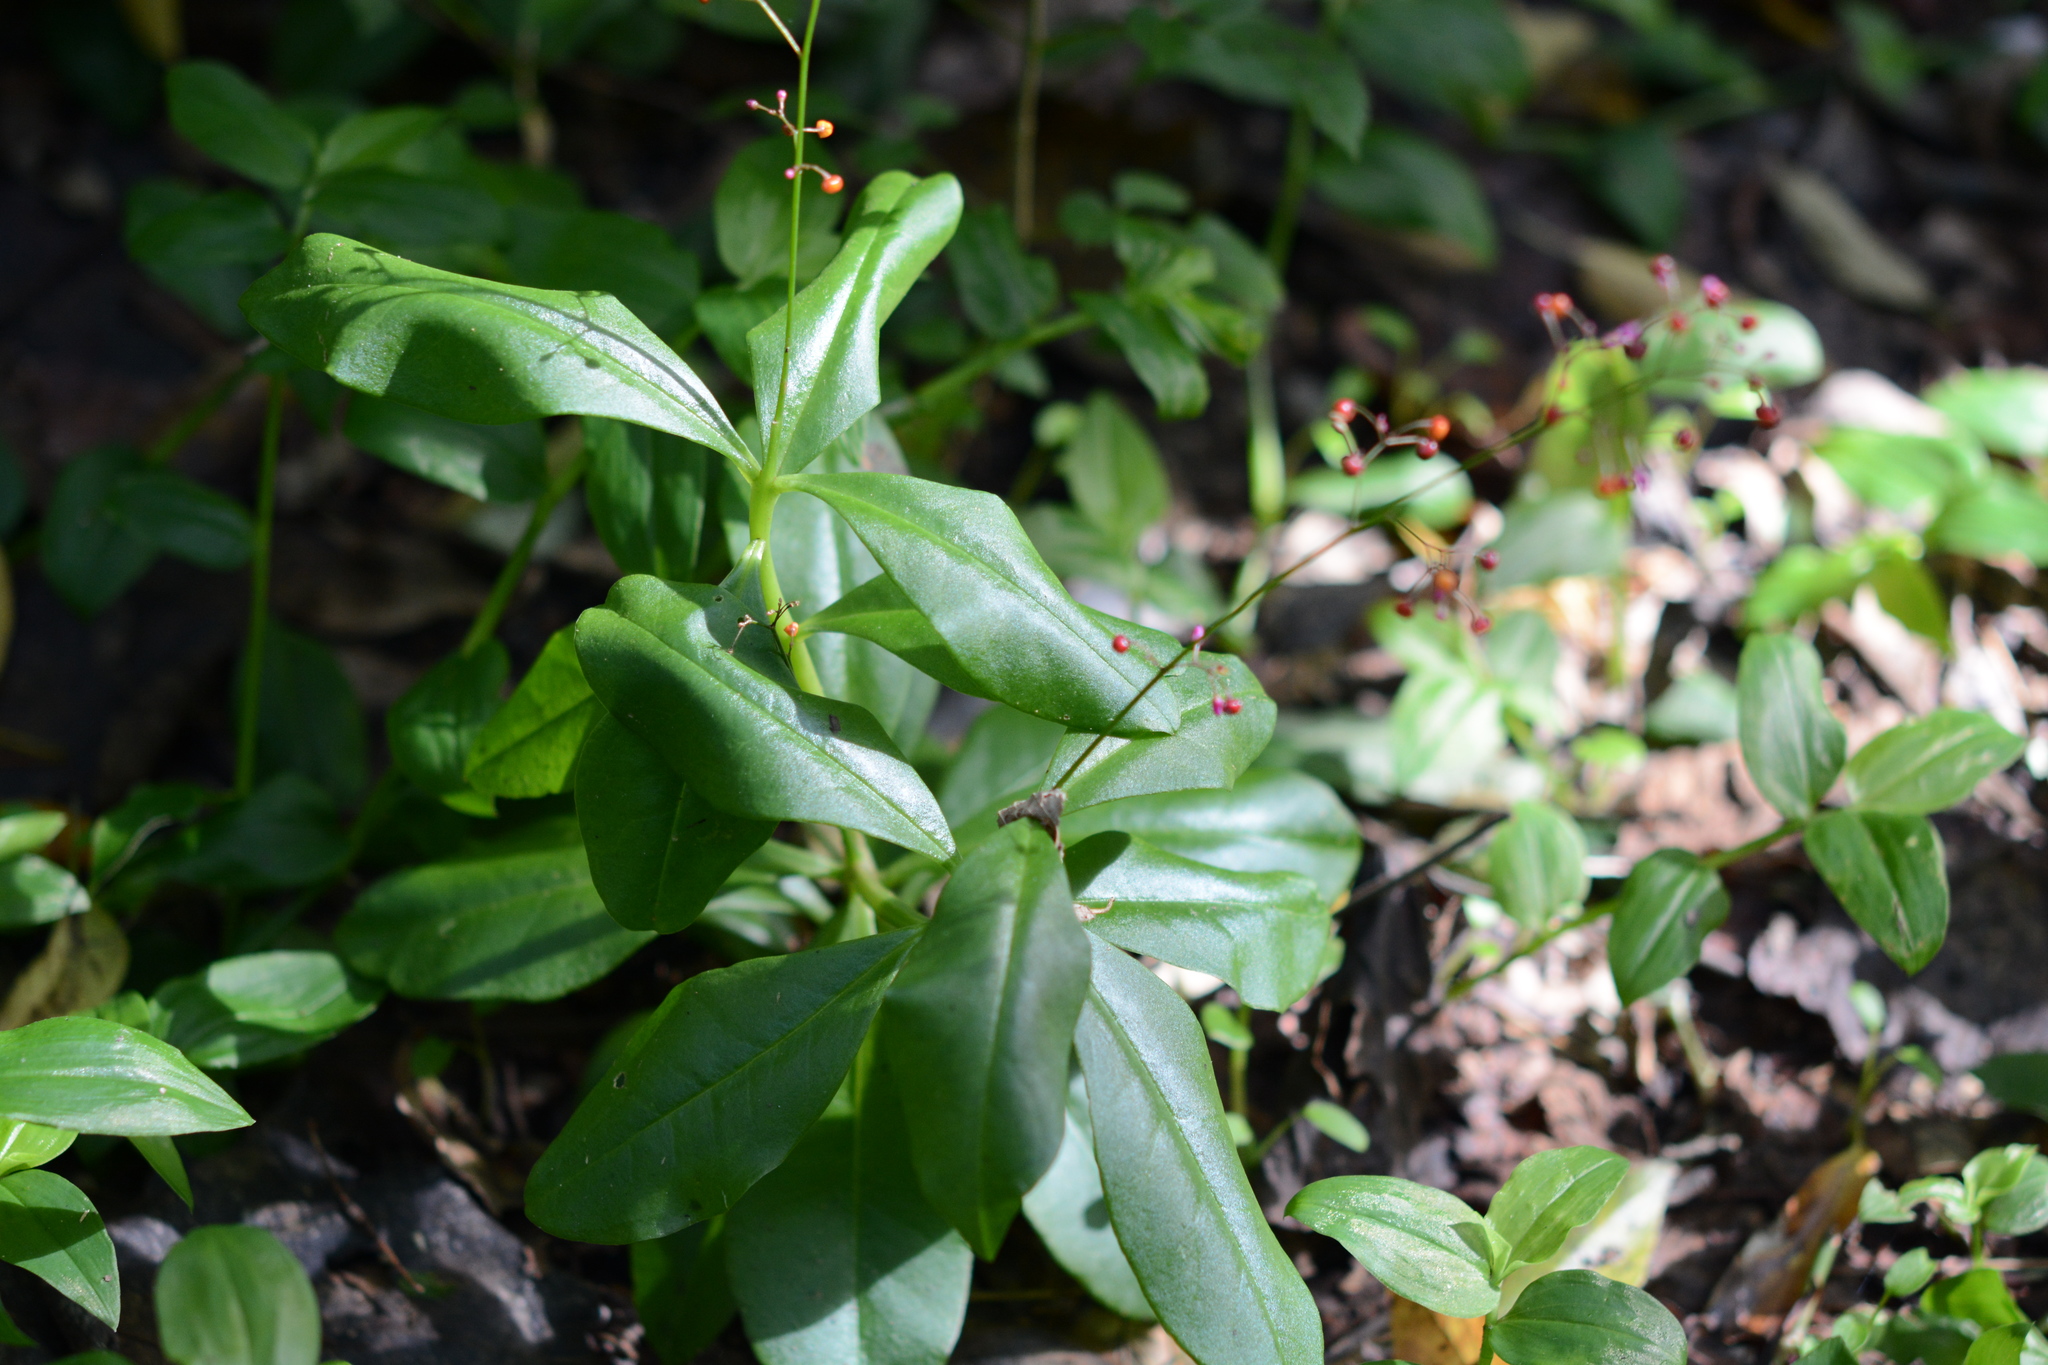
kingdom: Plantae
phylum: Tracheophyta
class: Magnoliopsida
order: Caryophyllales
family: Talinaceae
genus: Talinum
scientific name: Talinum paniculatum
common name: Jewels of opar
